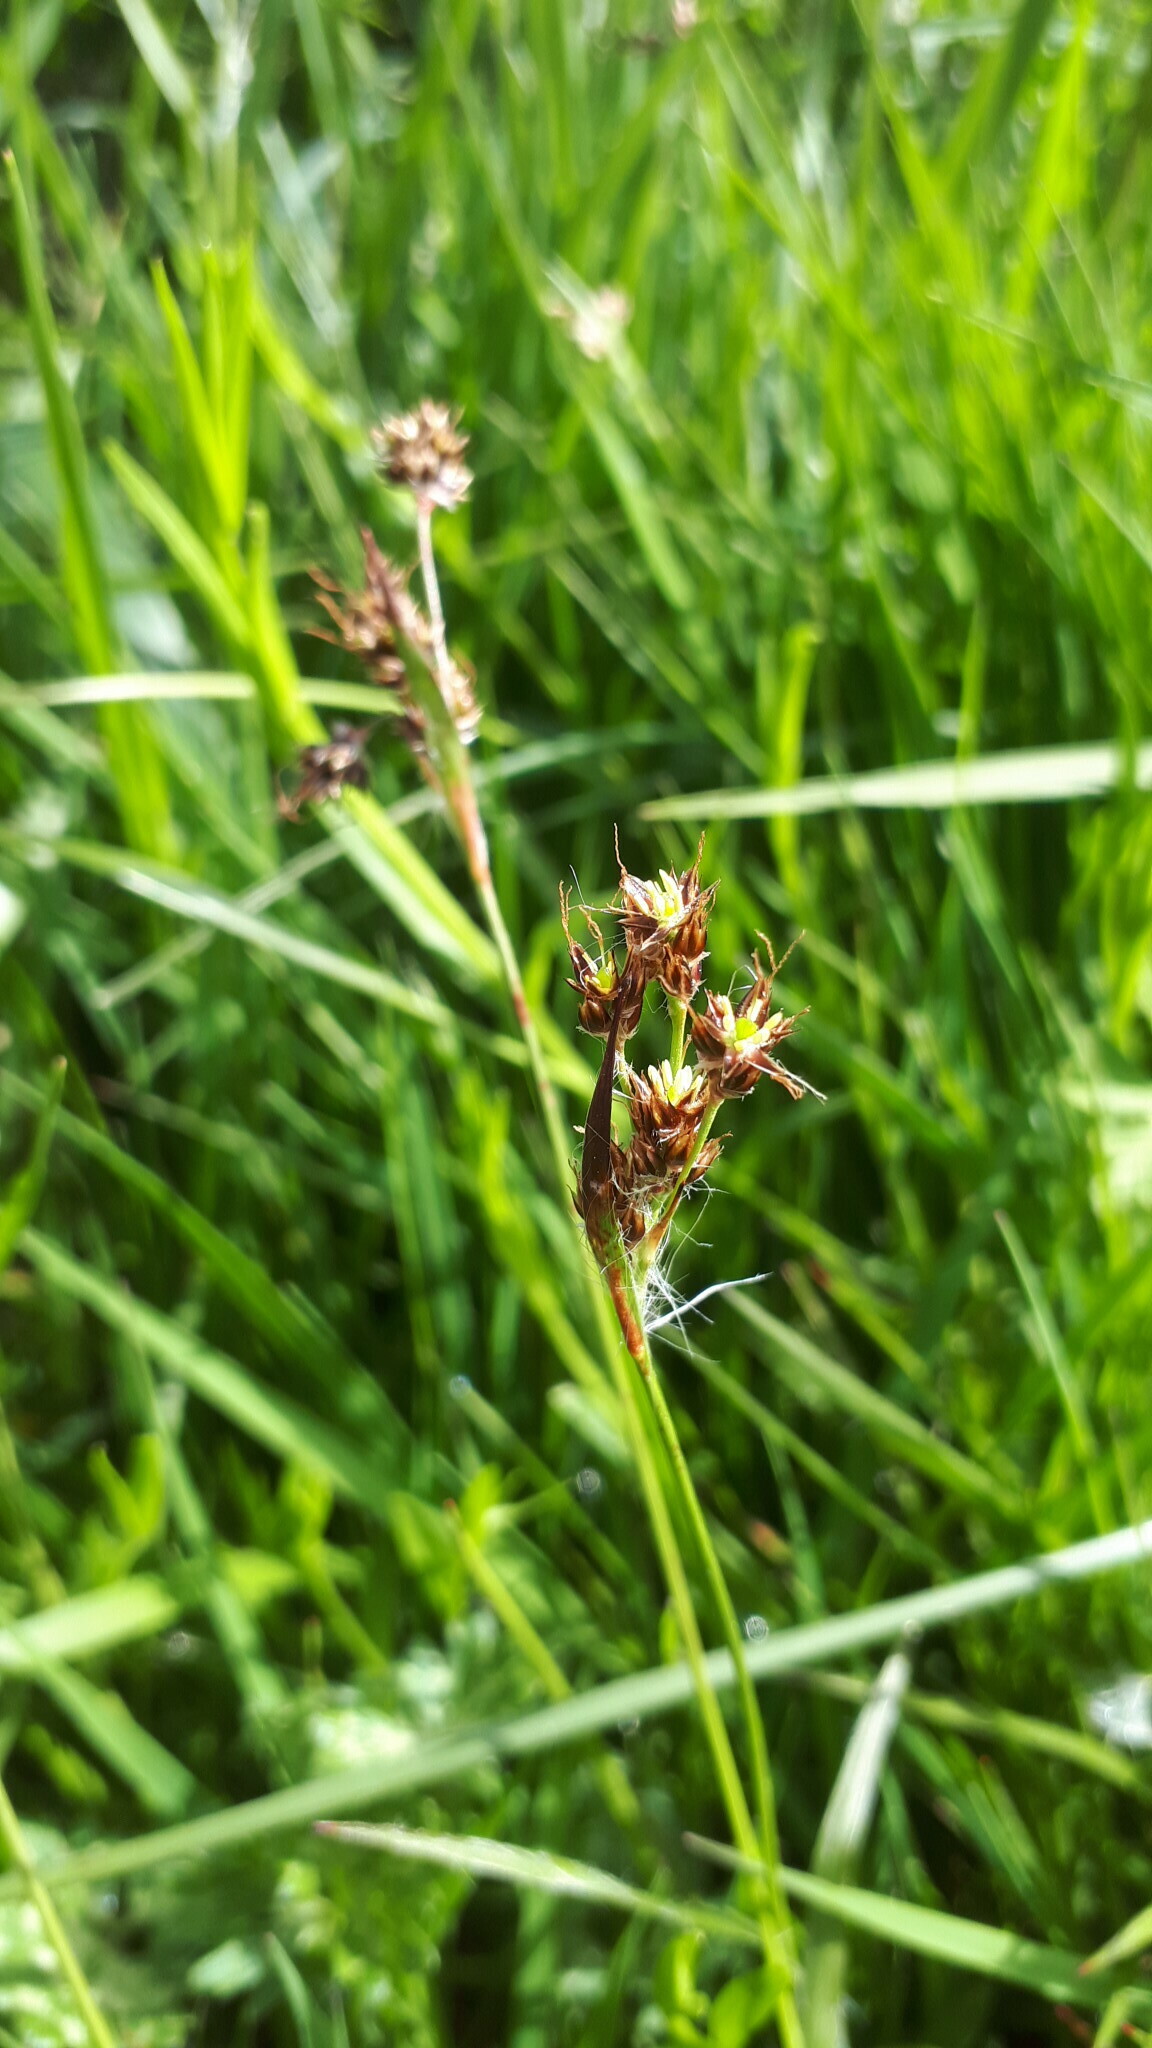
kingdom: Plantae
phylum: Tracheophyta
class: Liliopsida
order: Poales
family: Juncaceae
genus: Luzula
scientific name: Luzula campestris
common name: Field wood-rush
